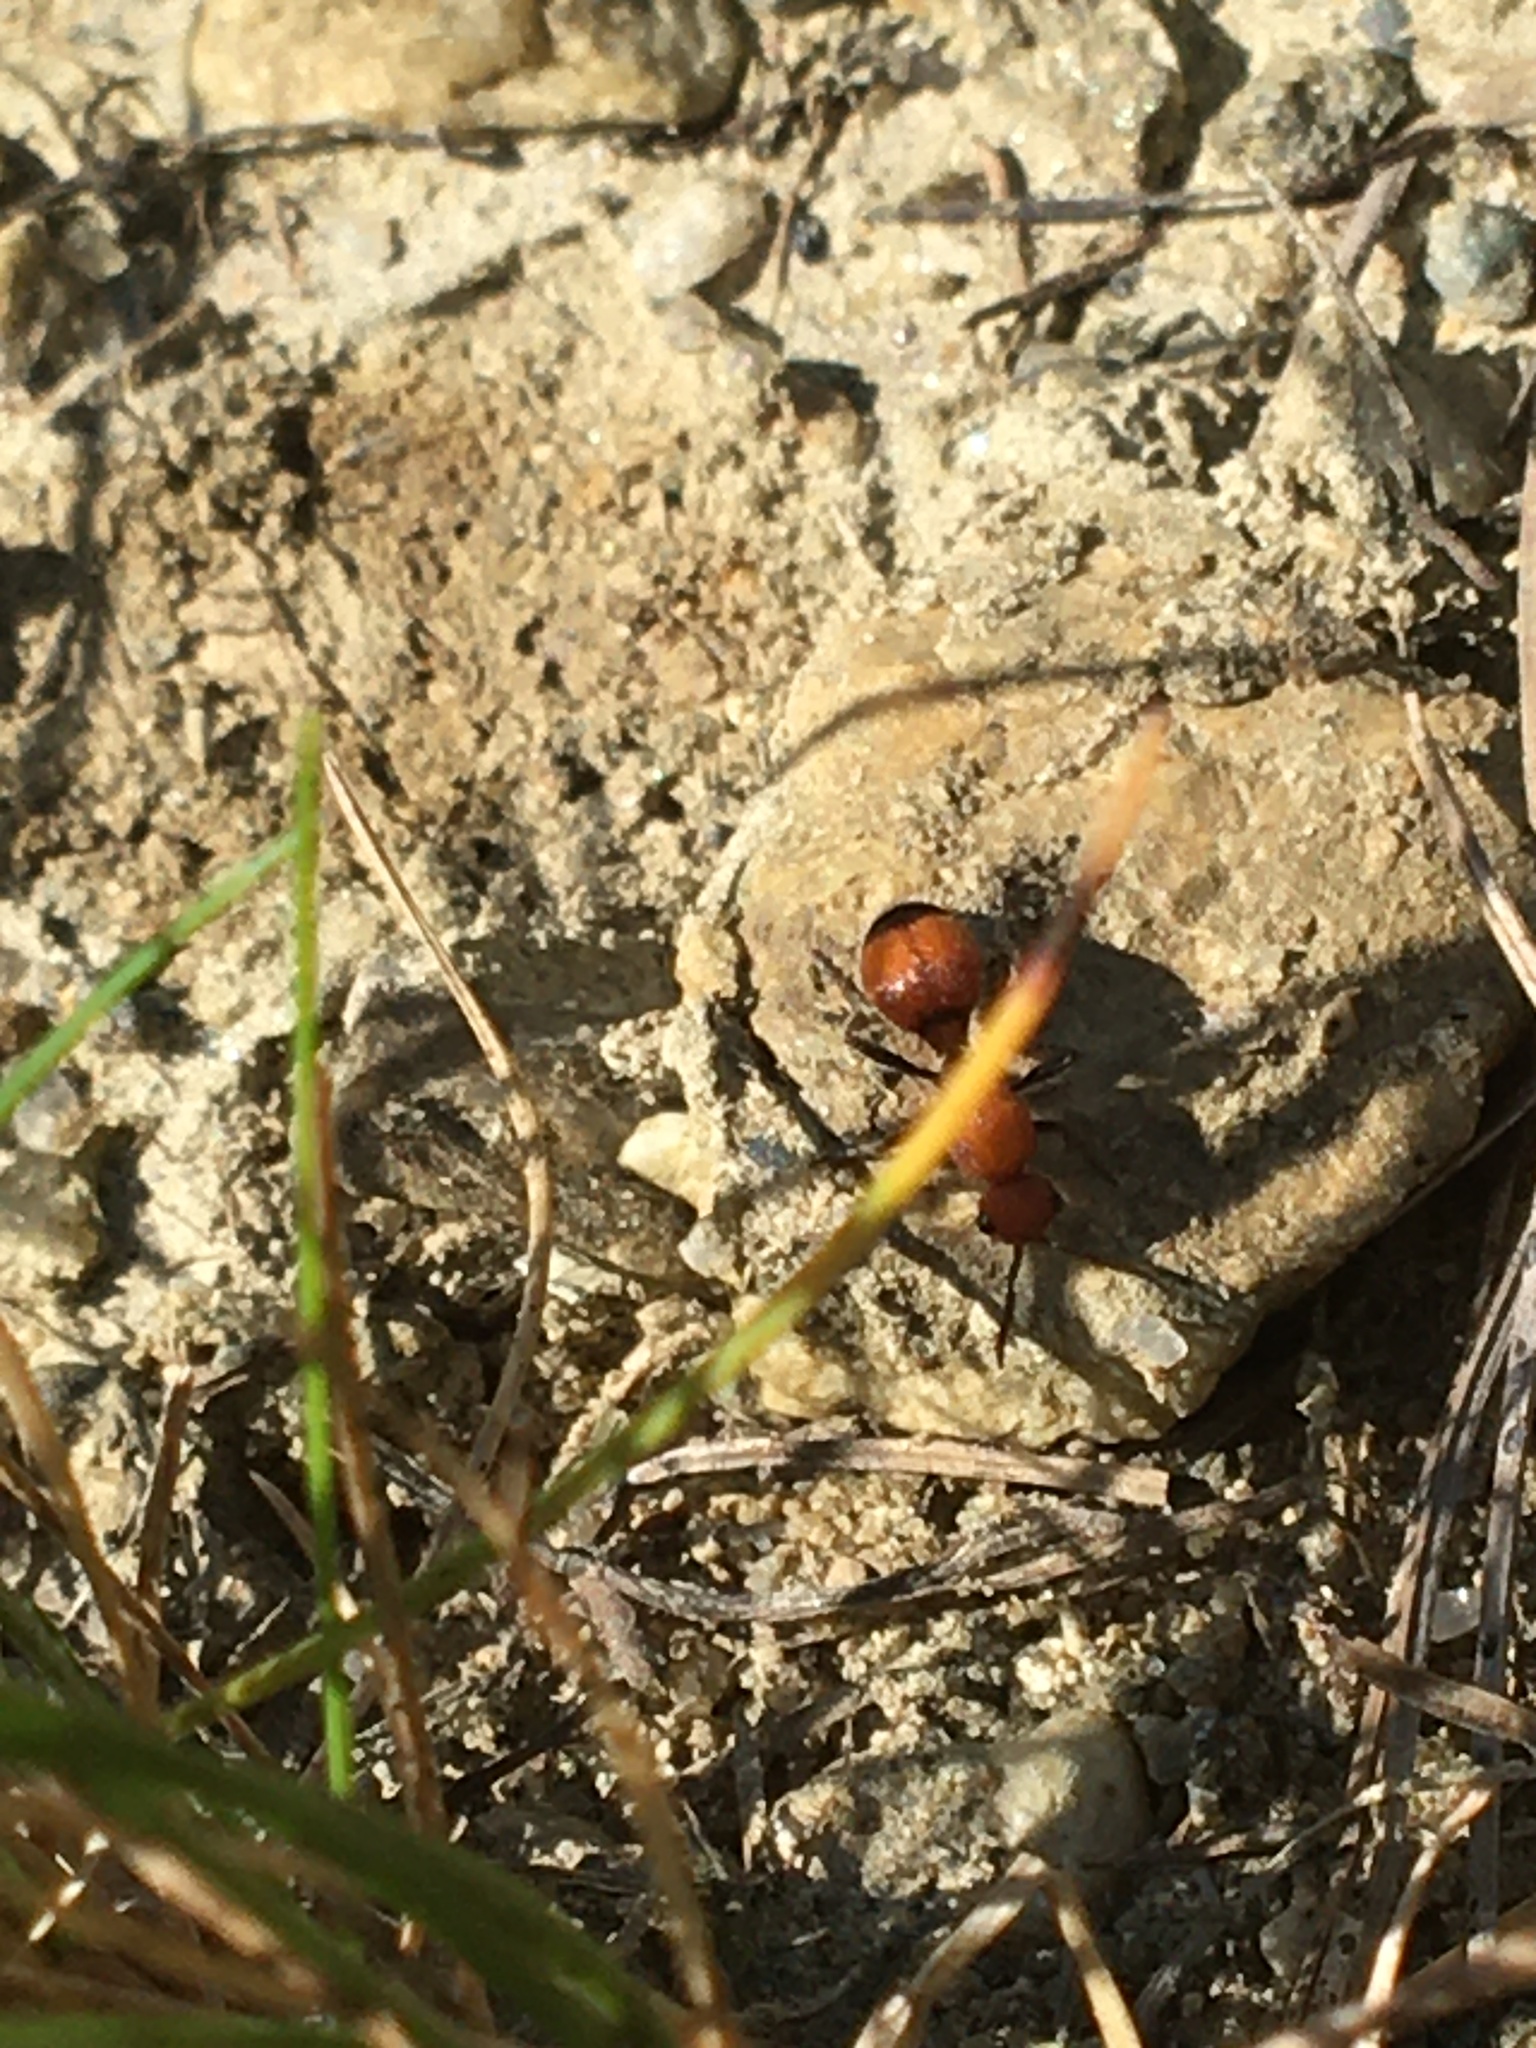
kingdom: Animalia
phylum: Arthropoda
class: Insecta
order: Hymenoptera
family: Mutillidae
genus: Dasymutilla
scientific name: Dasymutilla
